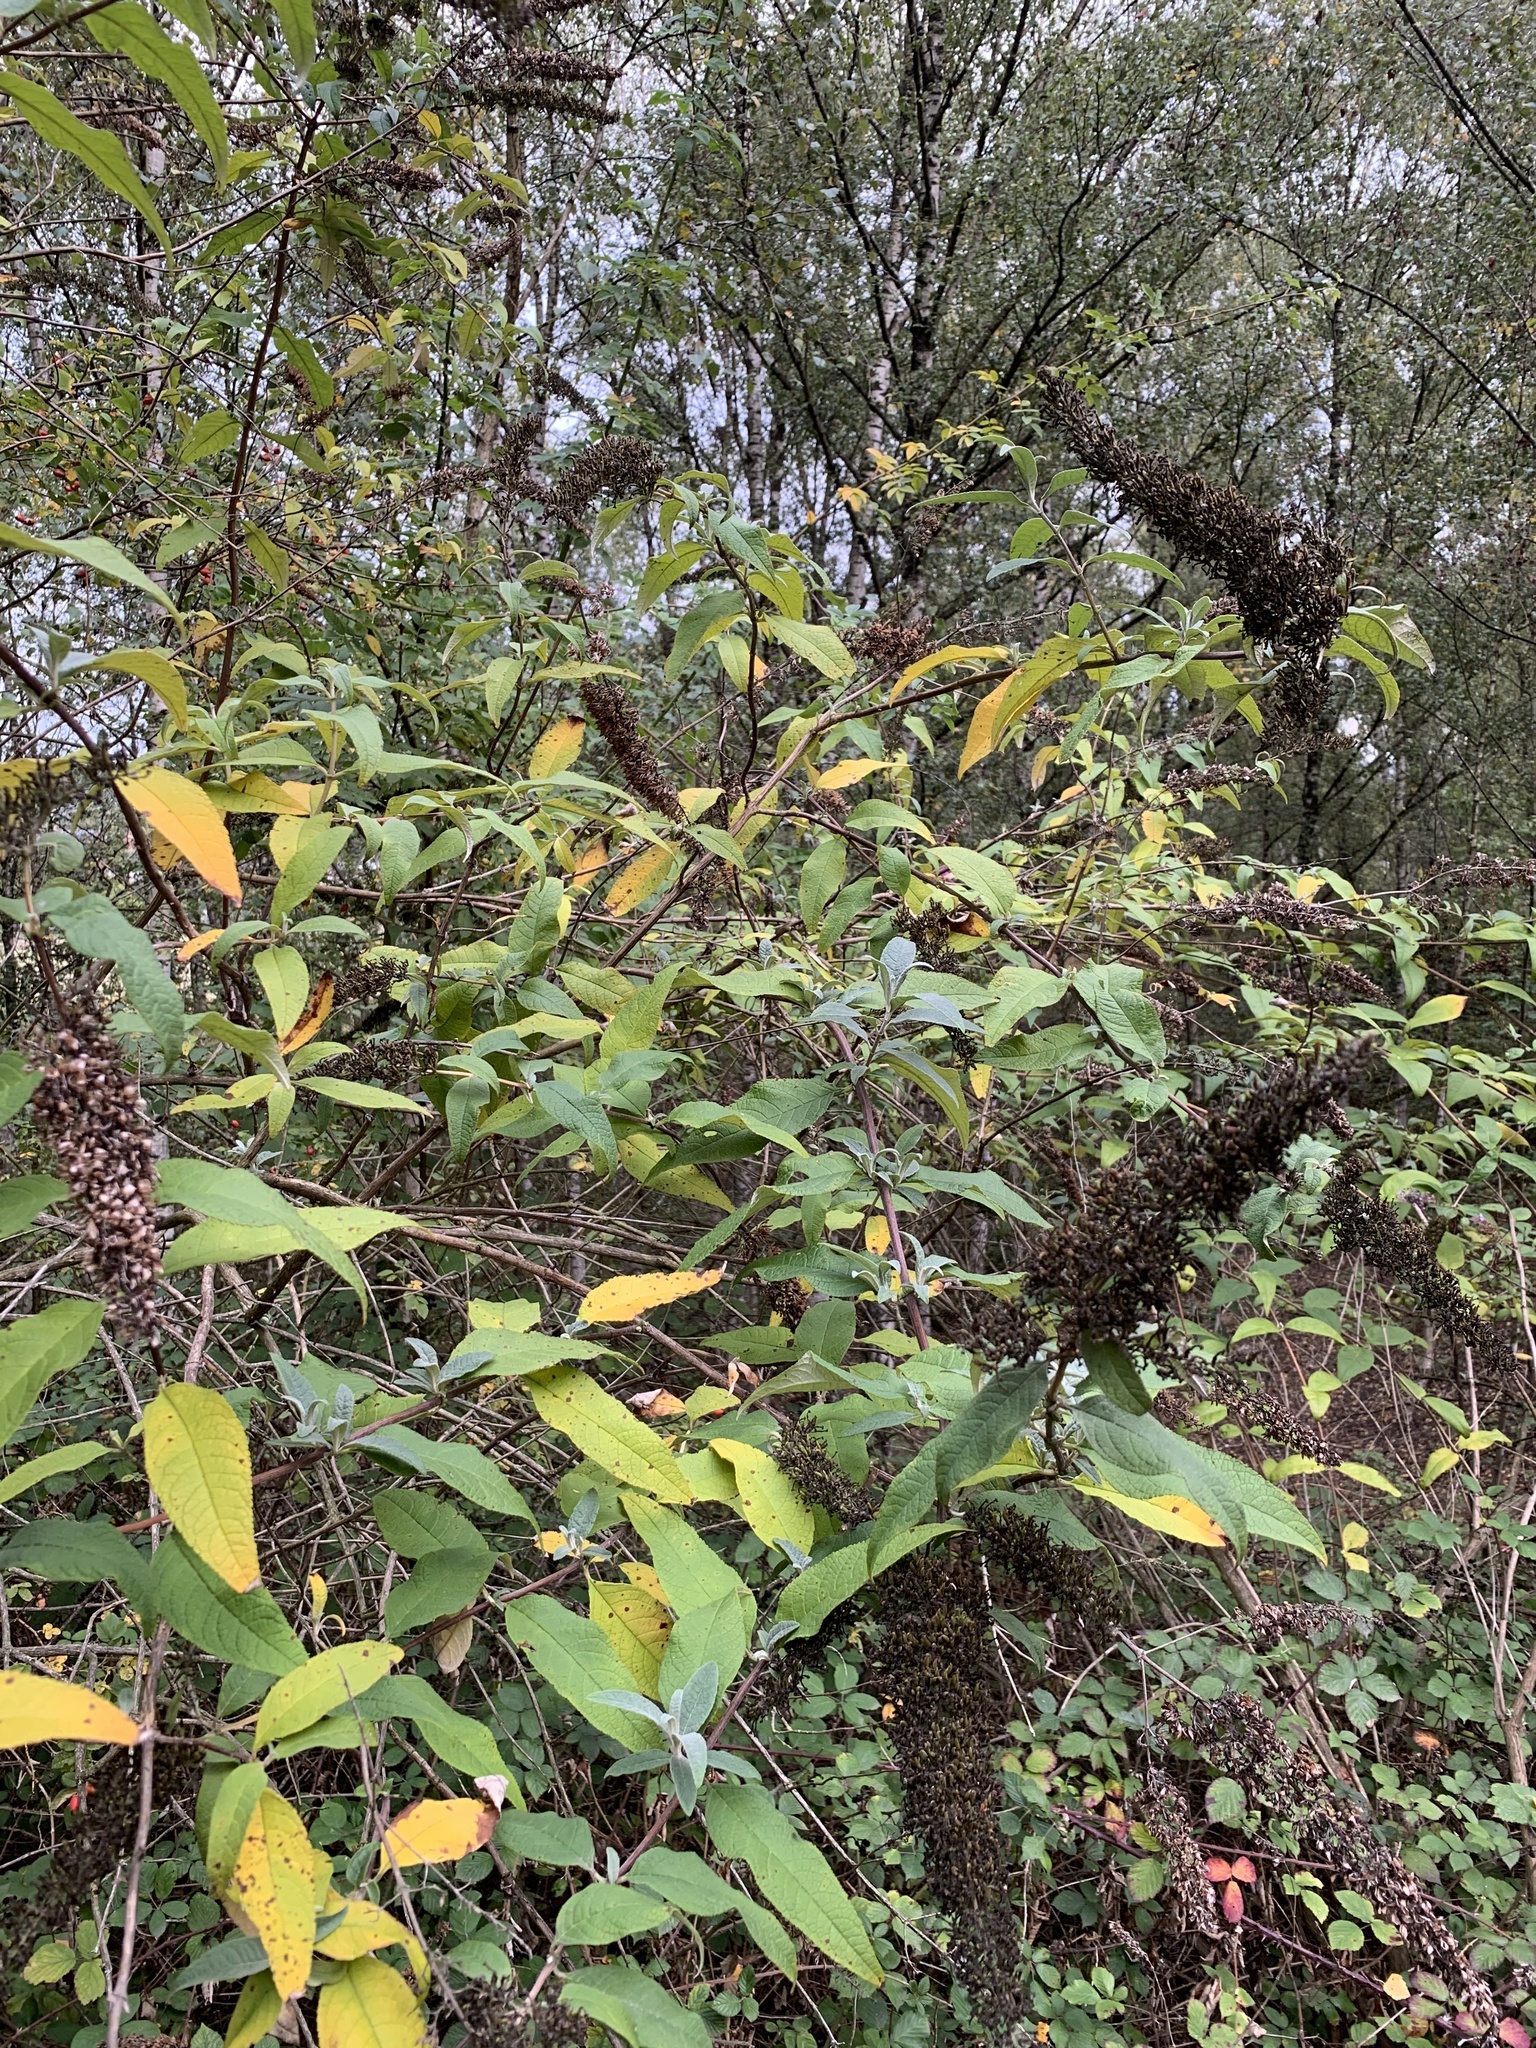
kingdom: Plantae
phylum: Tracheophyta
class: Magnoliopsida
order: Lamiales
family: Scrophulariaceae
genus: Buddleja
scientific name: Buddleja davidii
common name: Butterfly-bush
